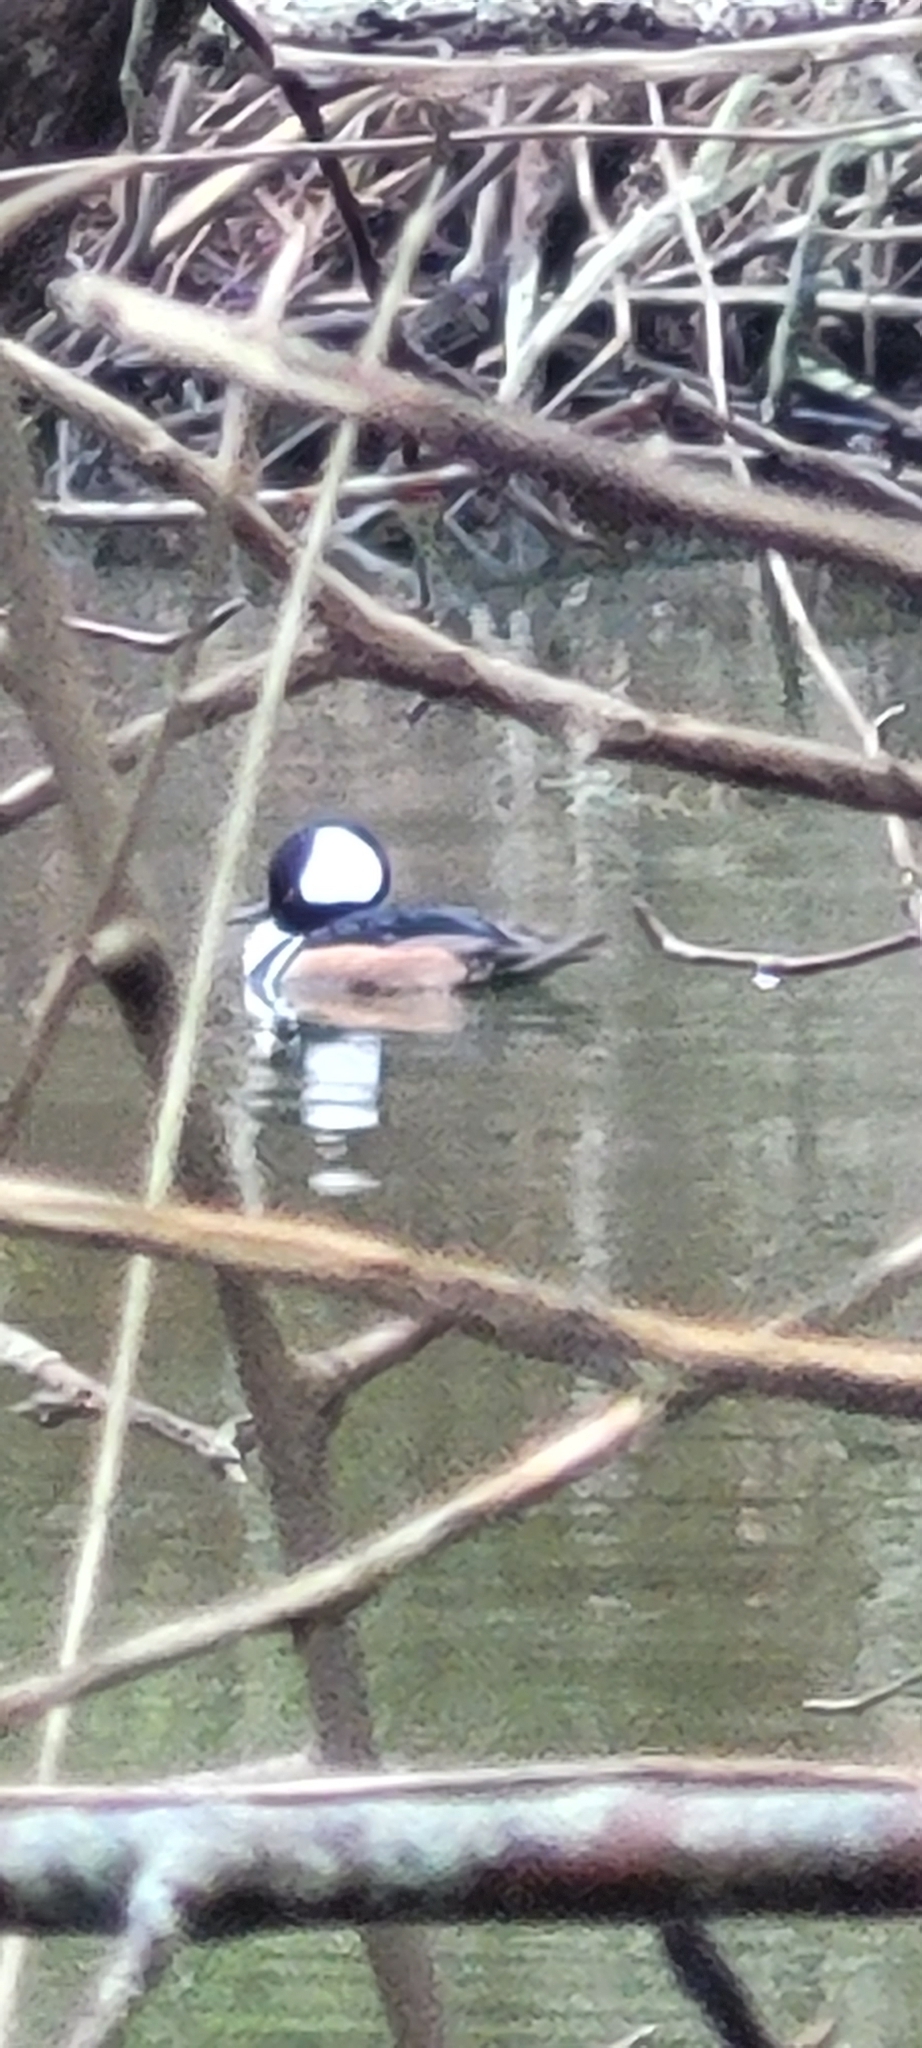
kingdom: Animalia
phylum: Chordata
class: Aves
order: Anseriformes
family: Anatidae
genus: Lophodytes
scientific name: Lophodytes cucullatus
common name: Hooded merganser
